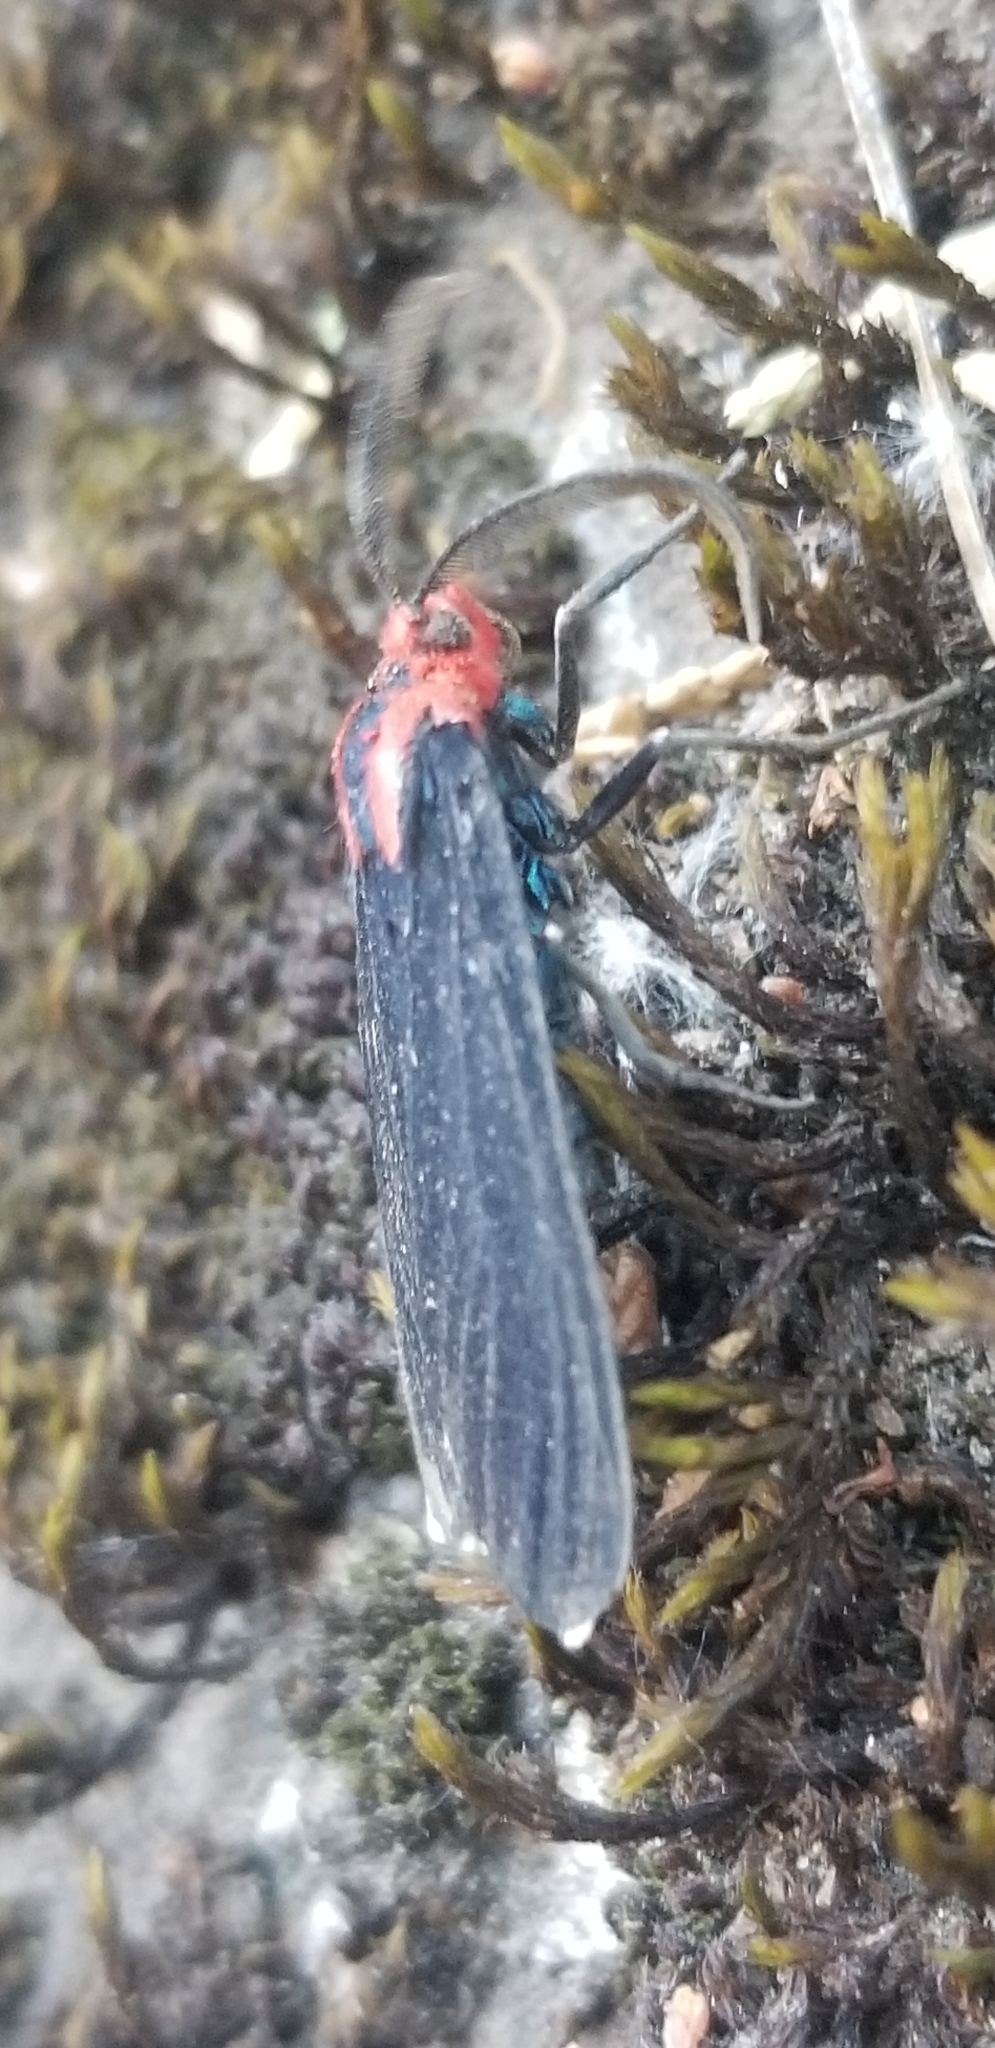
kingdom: Animalia
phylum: Arthropoda
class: Insecta
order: Lepidoptera
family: Erebidae
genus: Ctenucha
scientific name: Ctenucha rubroscapus
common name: Red-shouldered ctenucha
